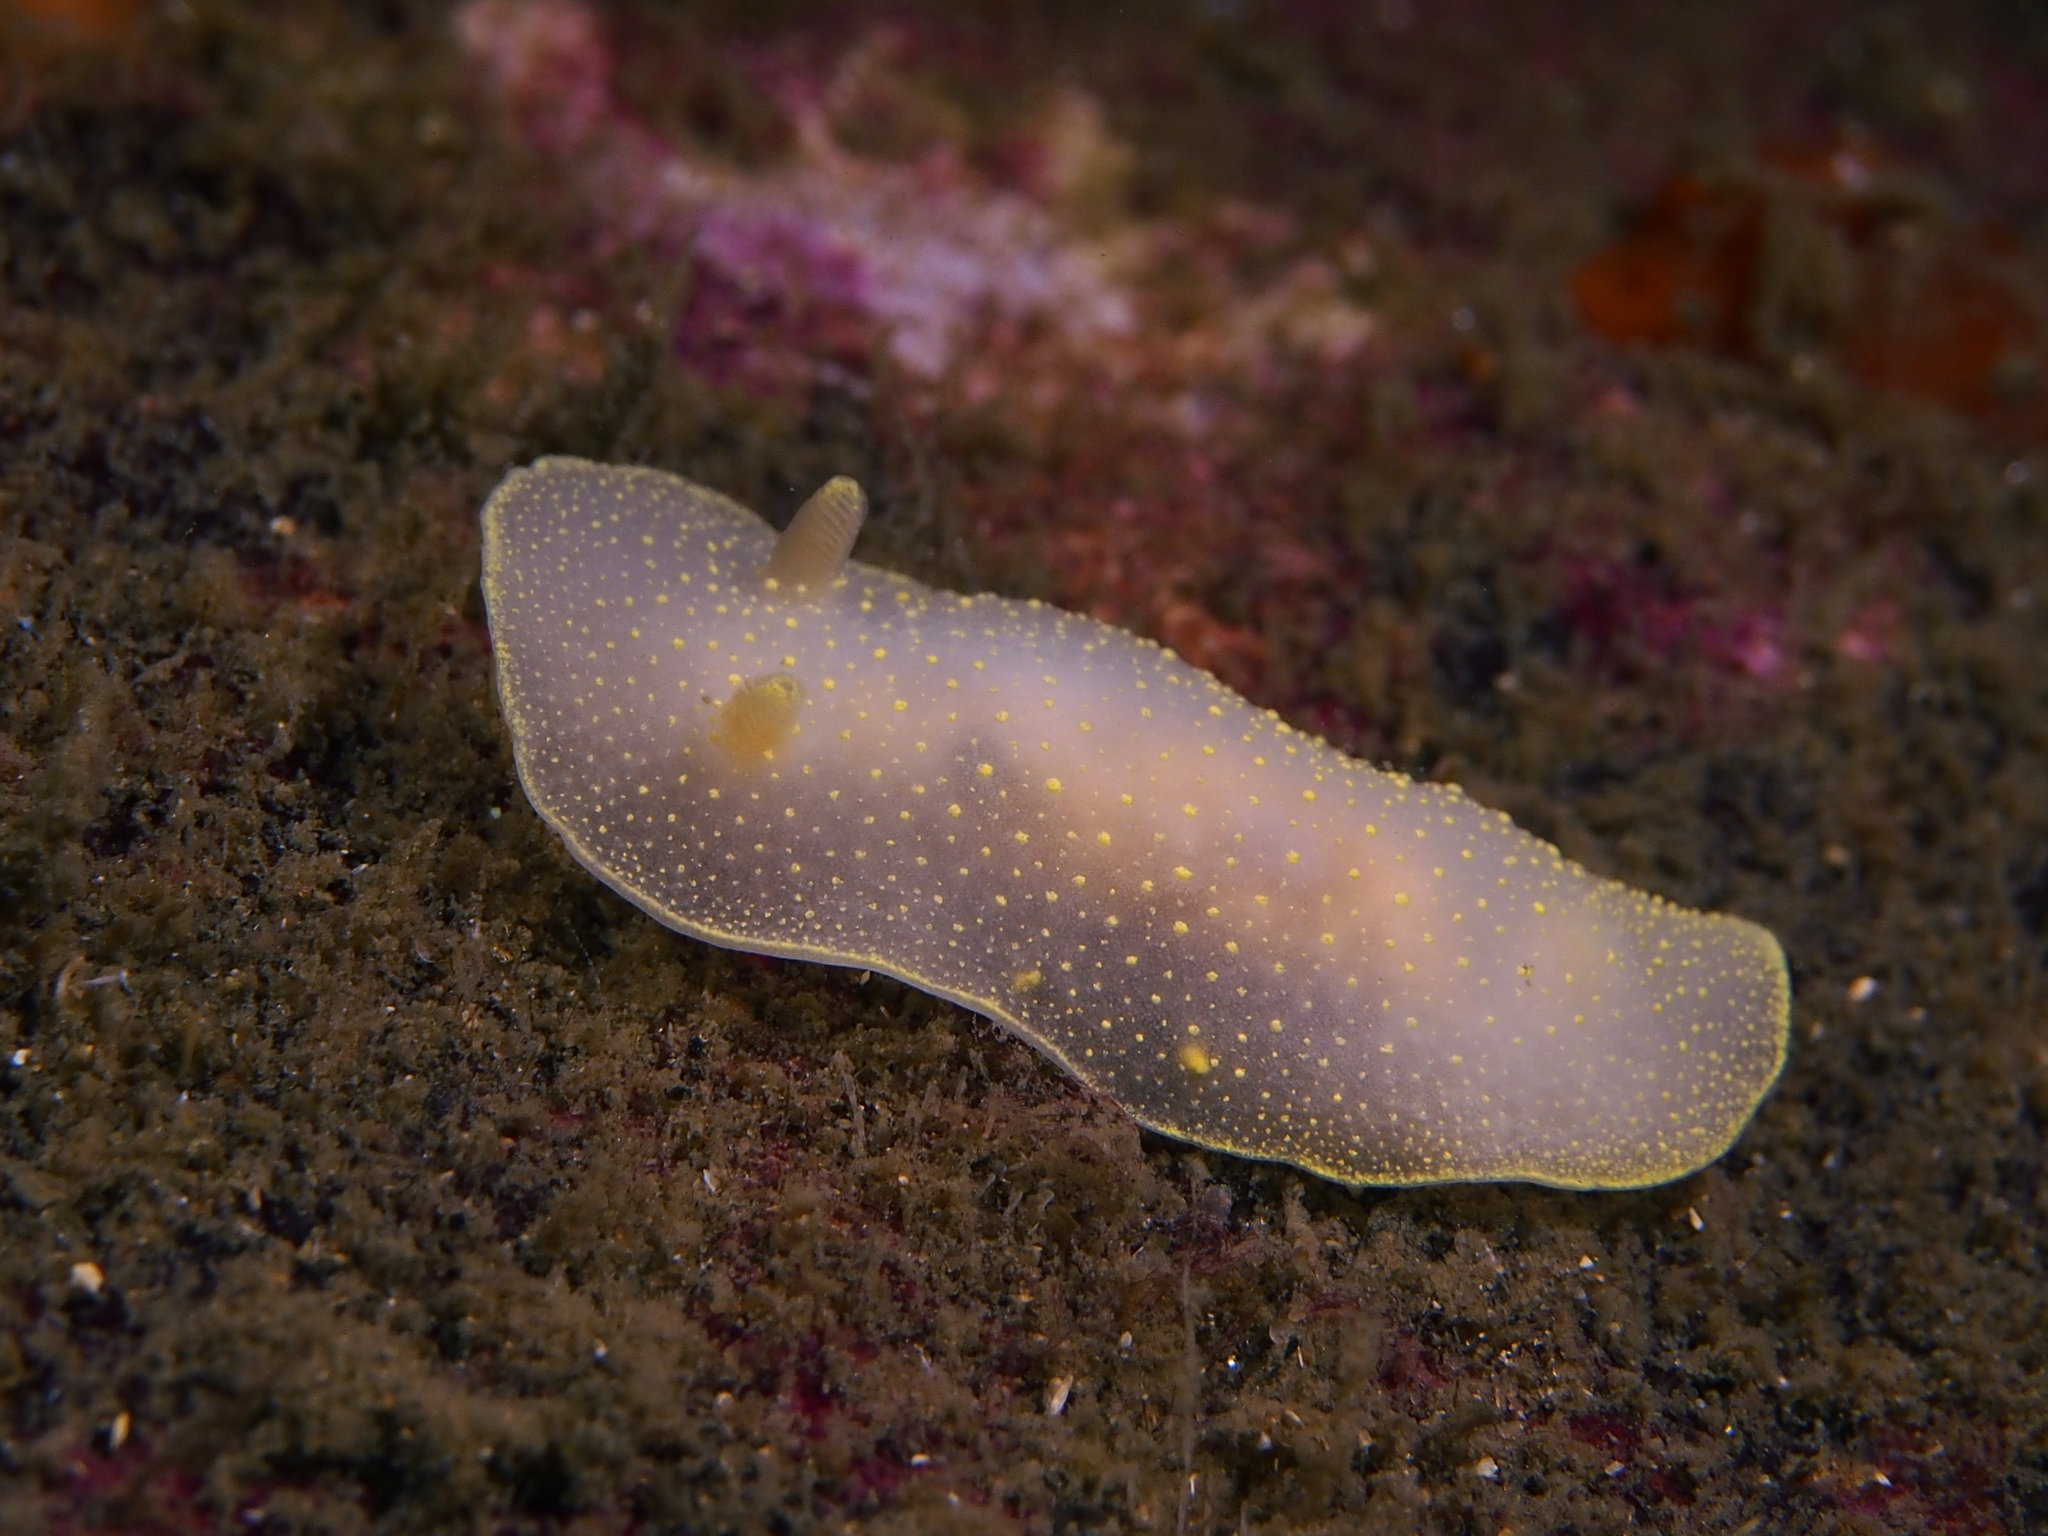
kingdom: Animalia
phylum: Mollusca
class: Gastropoda
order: Nudibranchia
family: Cadlinidae
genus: Cadlina
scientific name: Cadlina laevis
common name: White atlantic cadlina
